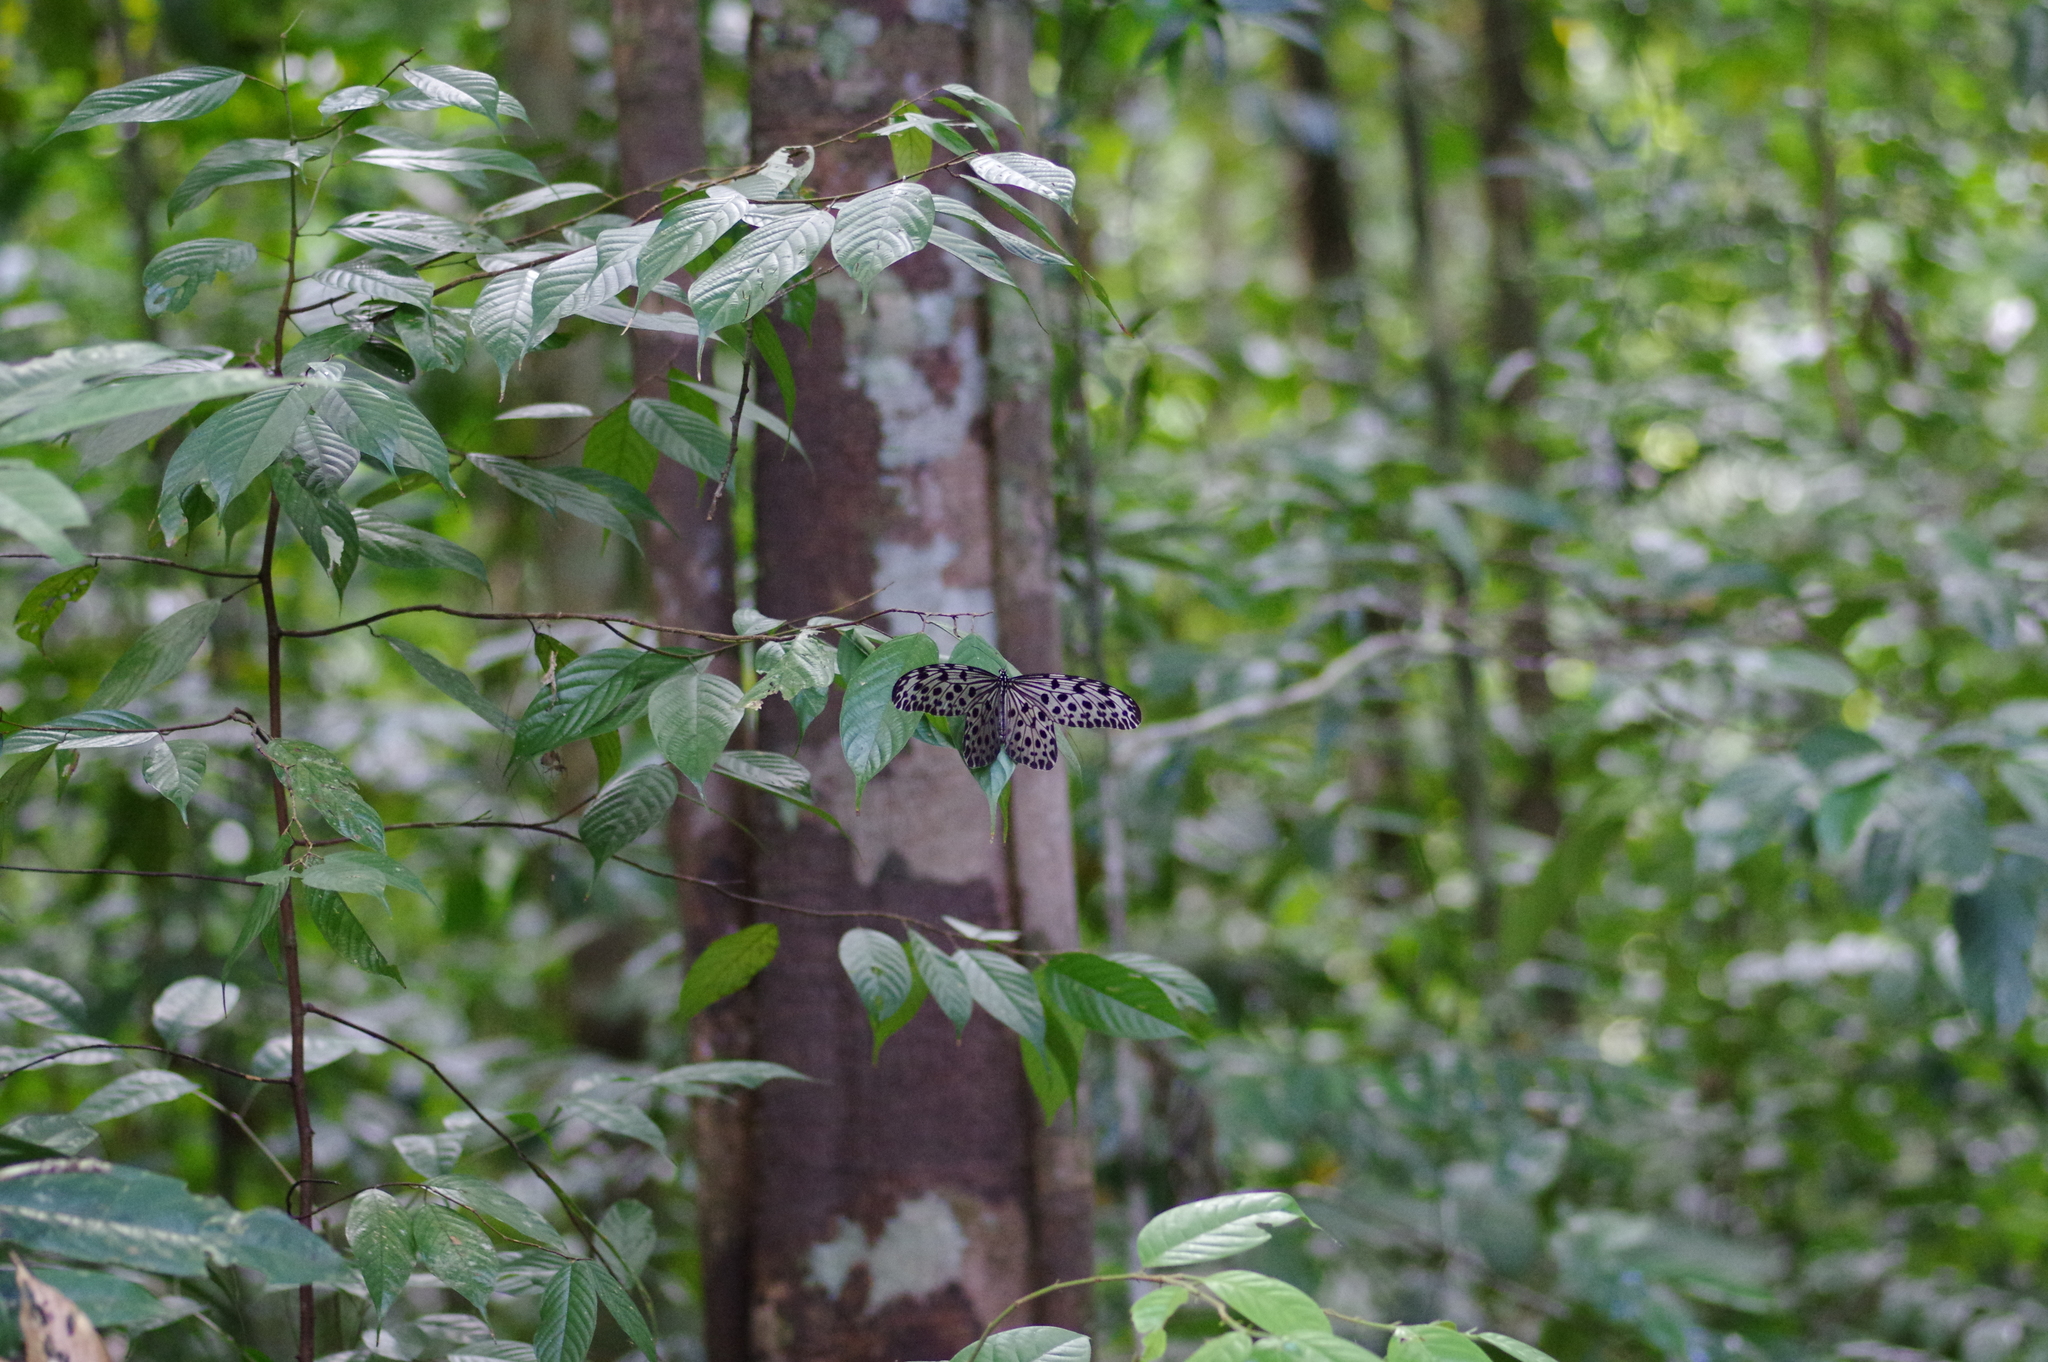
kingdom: Animalia
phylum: Arthropoda
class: Insecta
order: Lepidoptera
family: Nymphalidae
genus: Idea
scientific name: Idea stolli
